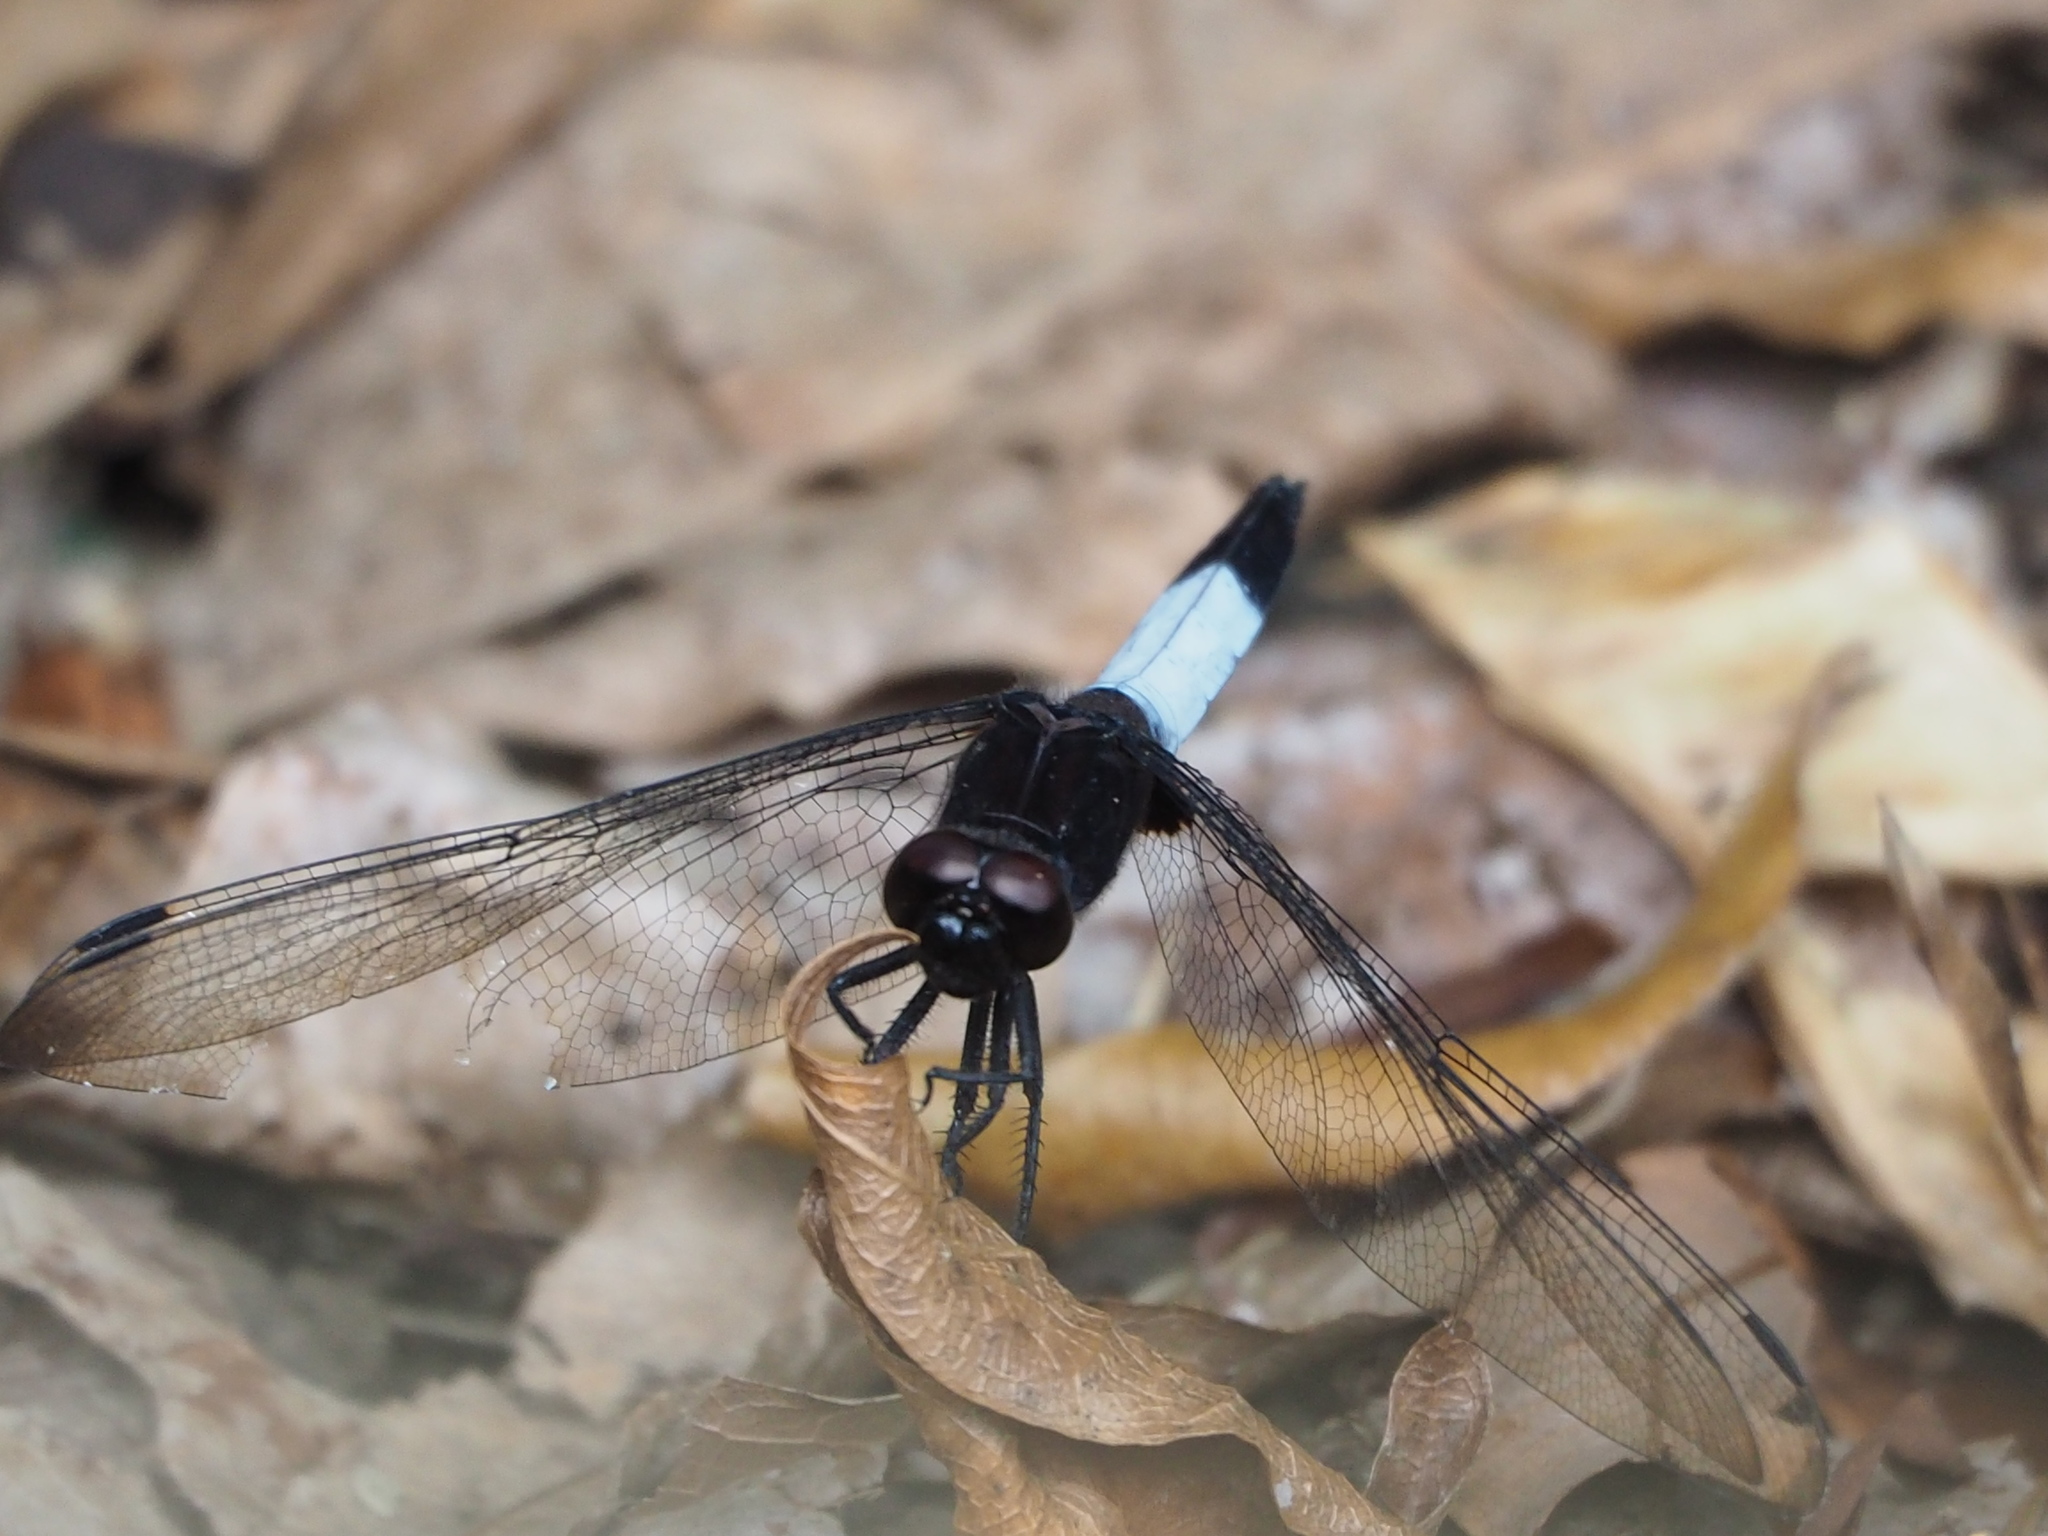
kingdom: Animalia
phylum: Arthropoda
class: Insecta
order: Odonata
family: Libellulidae
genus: Orthetrum
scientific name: Orthetrum triangulare
